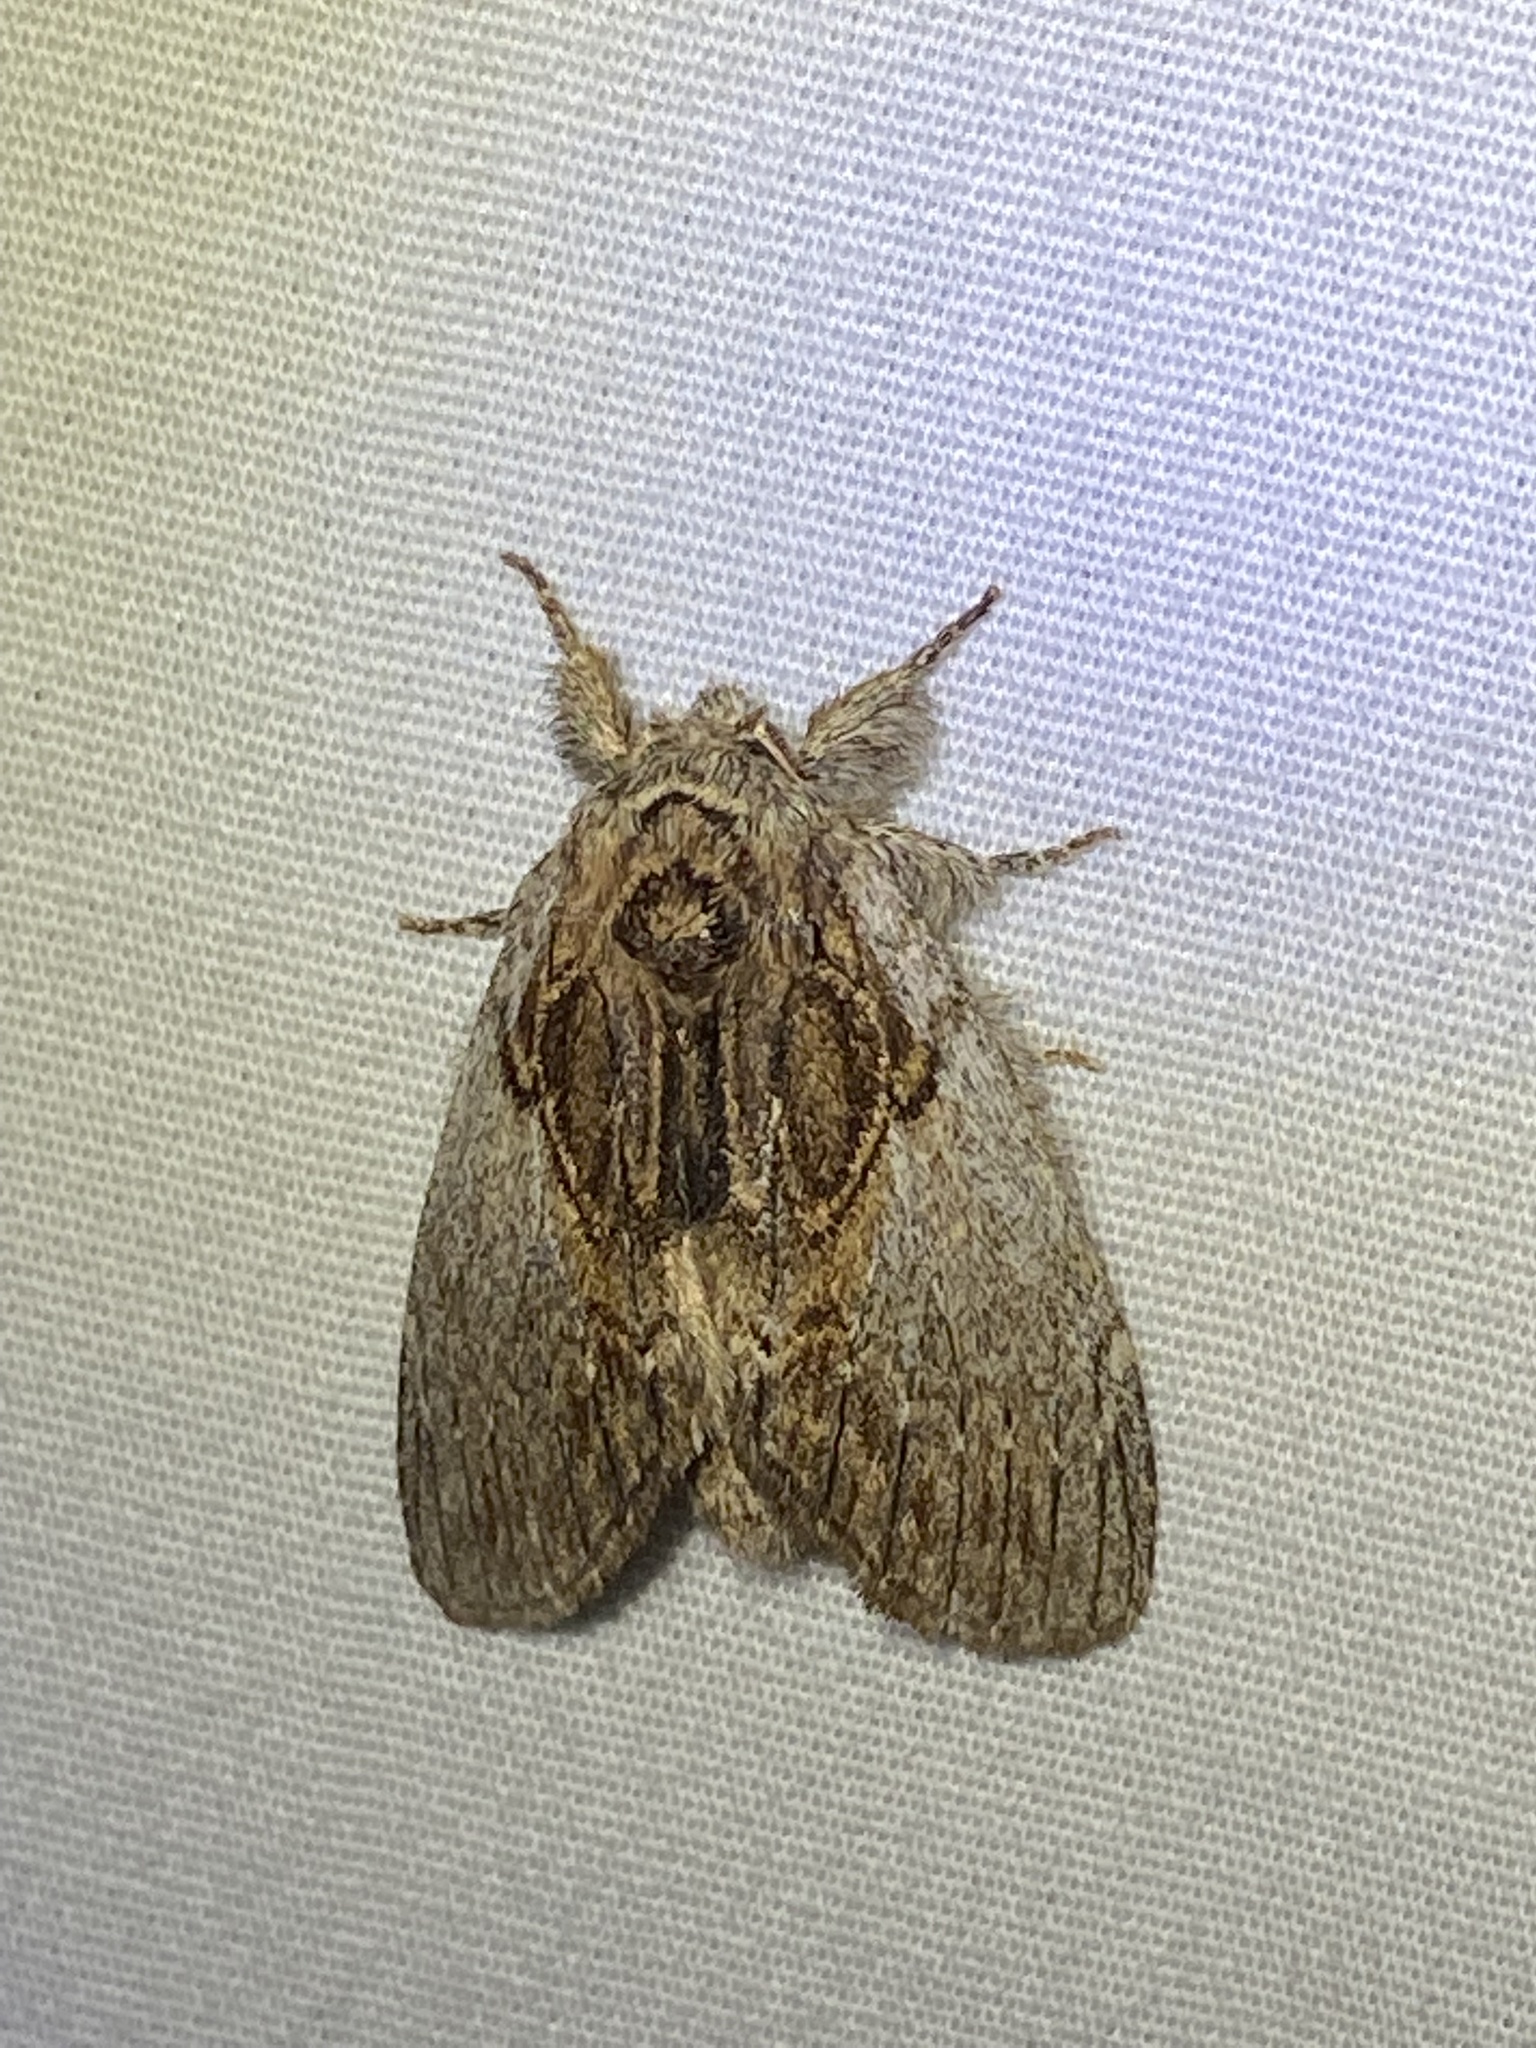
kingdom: Animalia
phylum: Arthropoda
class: Insecta
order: Lepidoptera
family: Notodontidae
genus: Peridea
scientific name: Peridea basitriens
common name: Oval-based prominent
